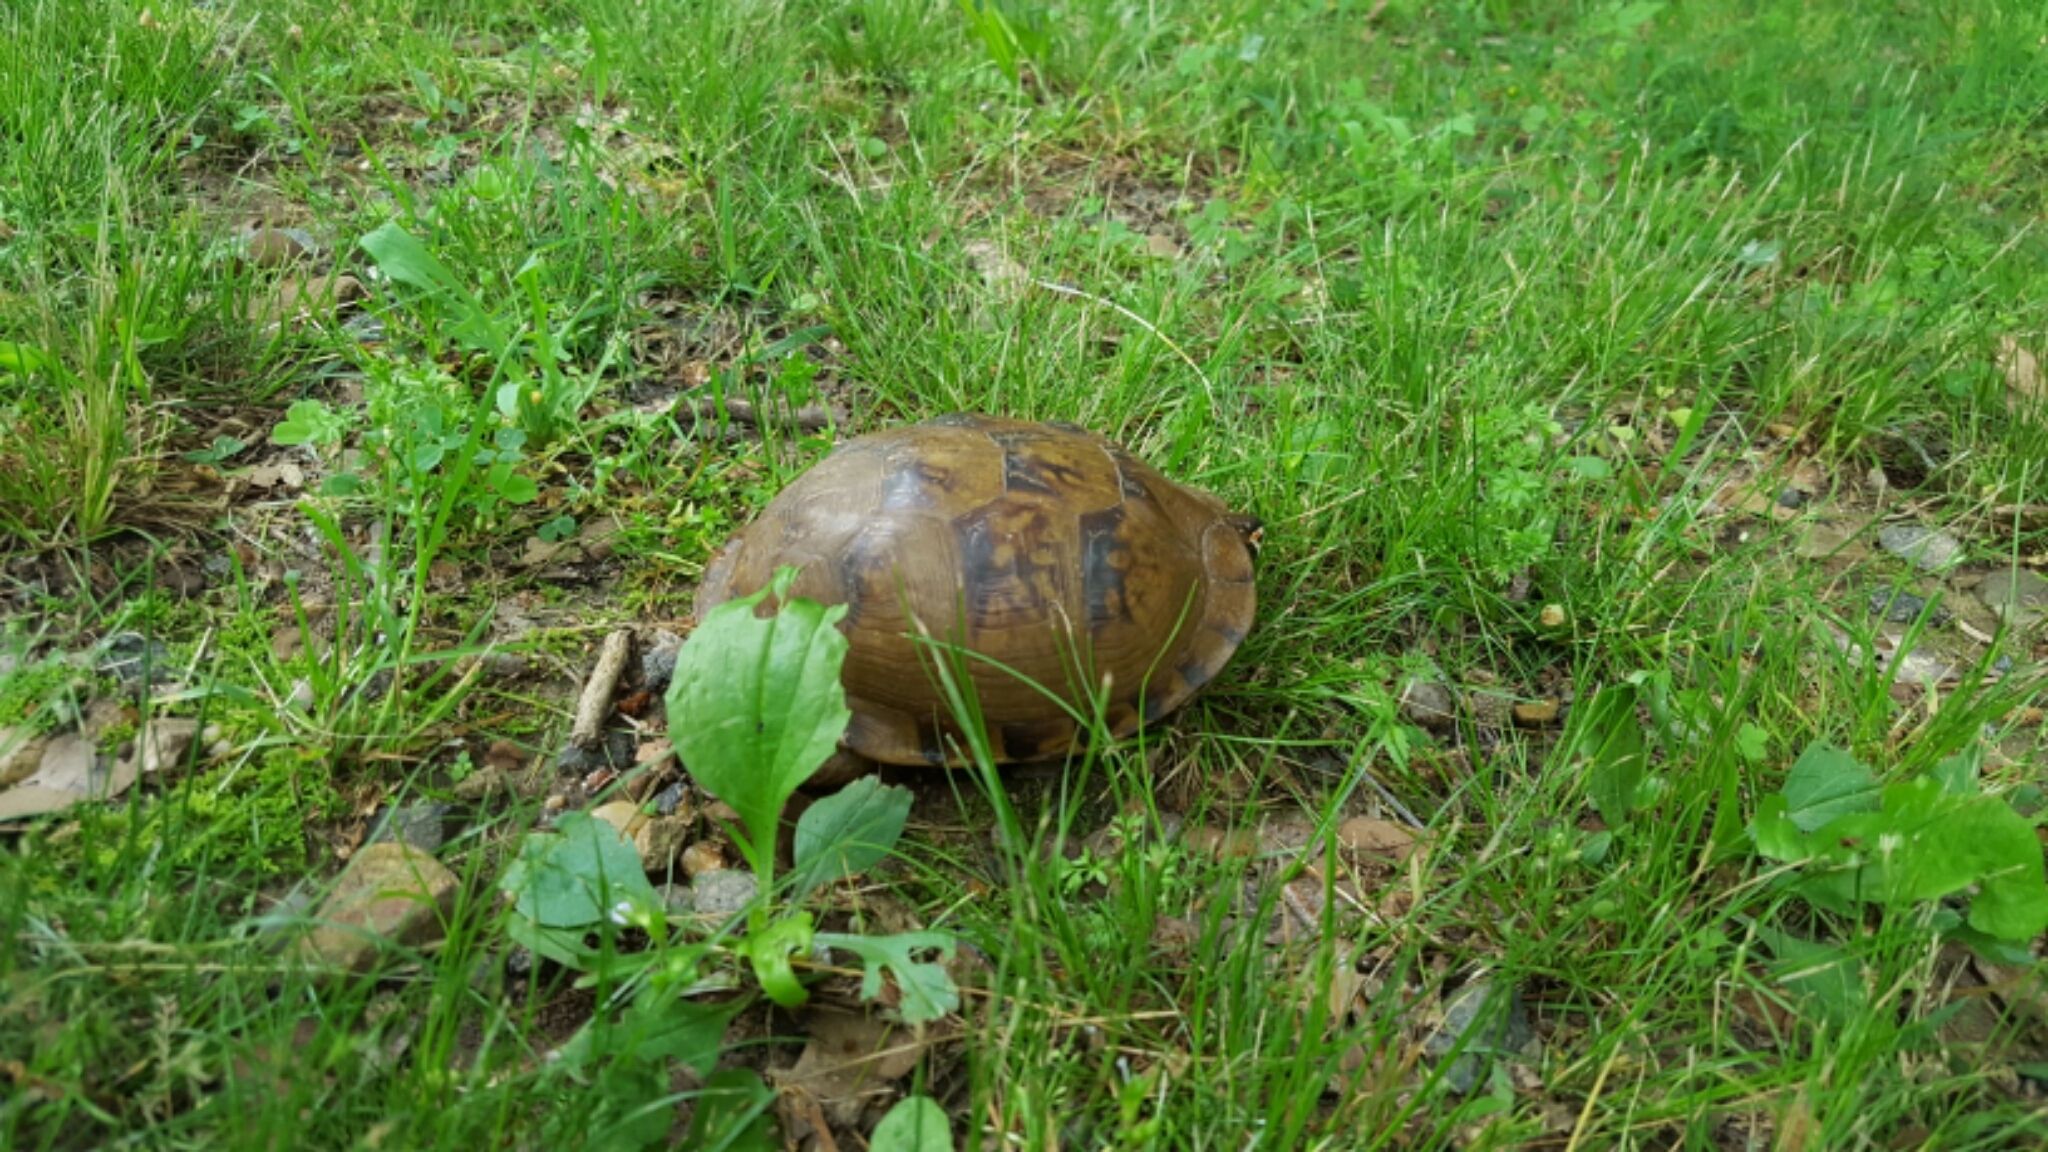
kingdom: Animalia
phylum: Chordata
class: Testudines
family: Emydidae
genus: Terrapene
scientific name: Terrapene carolina
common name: Common box turtle
